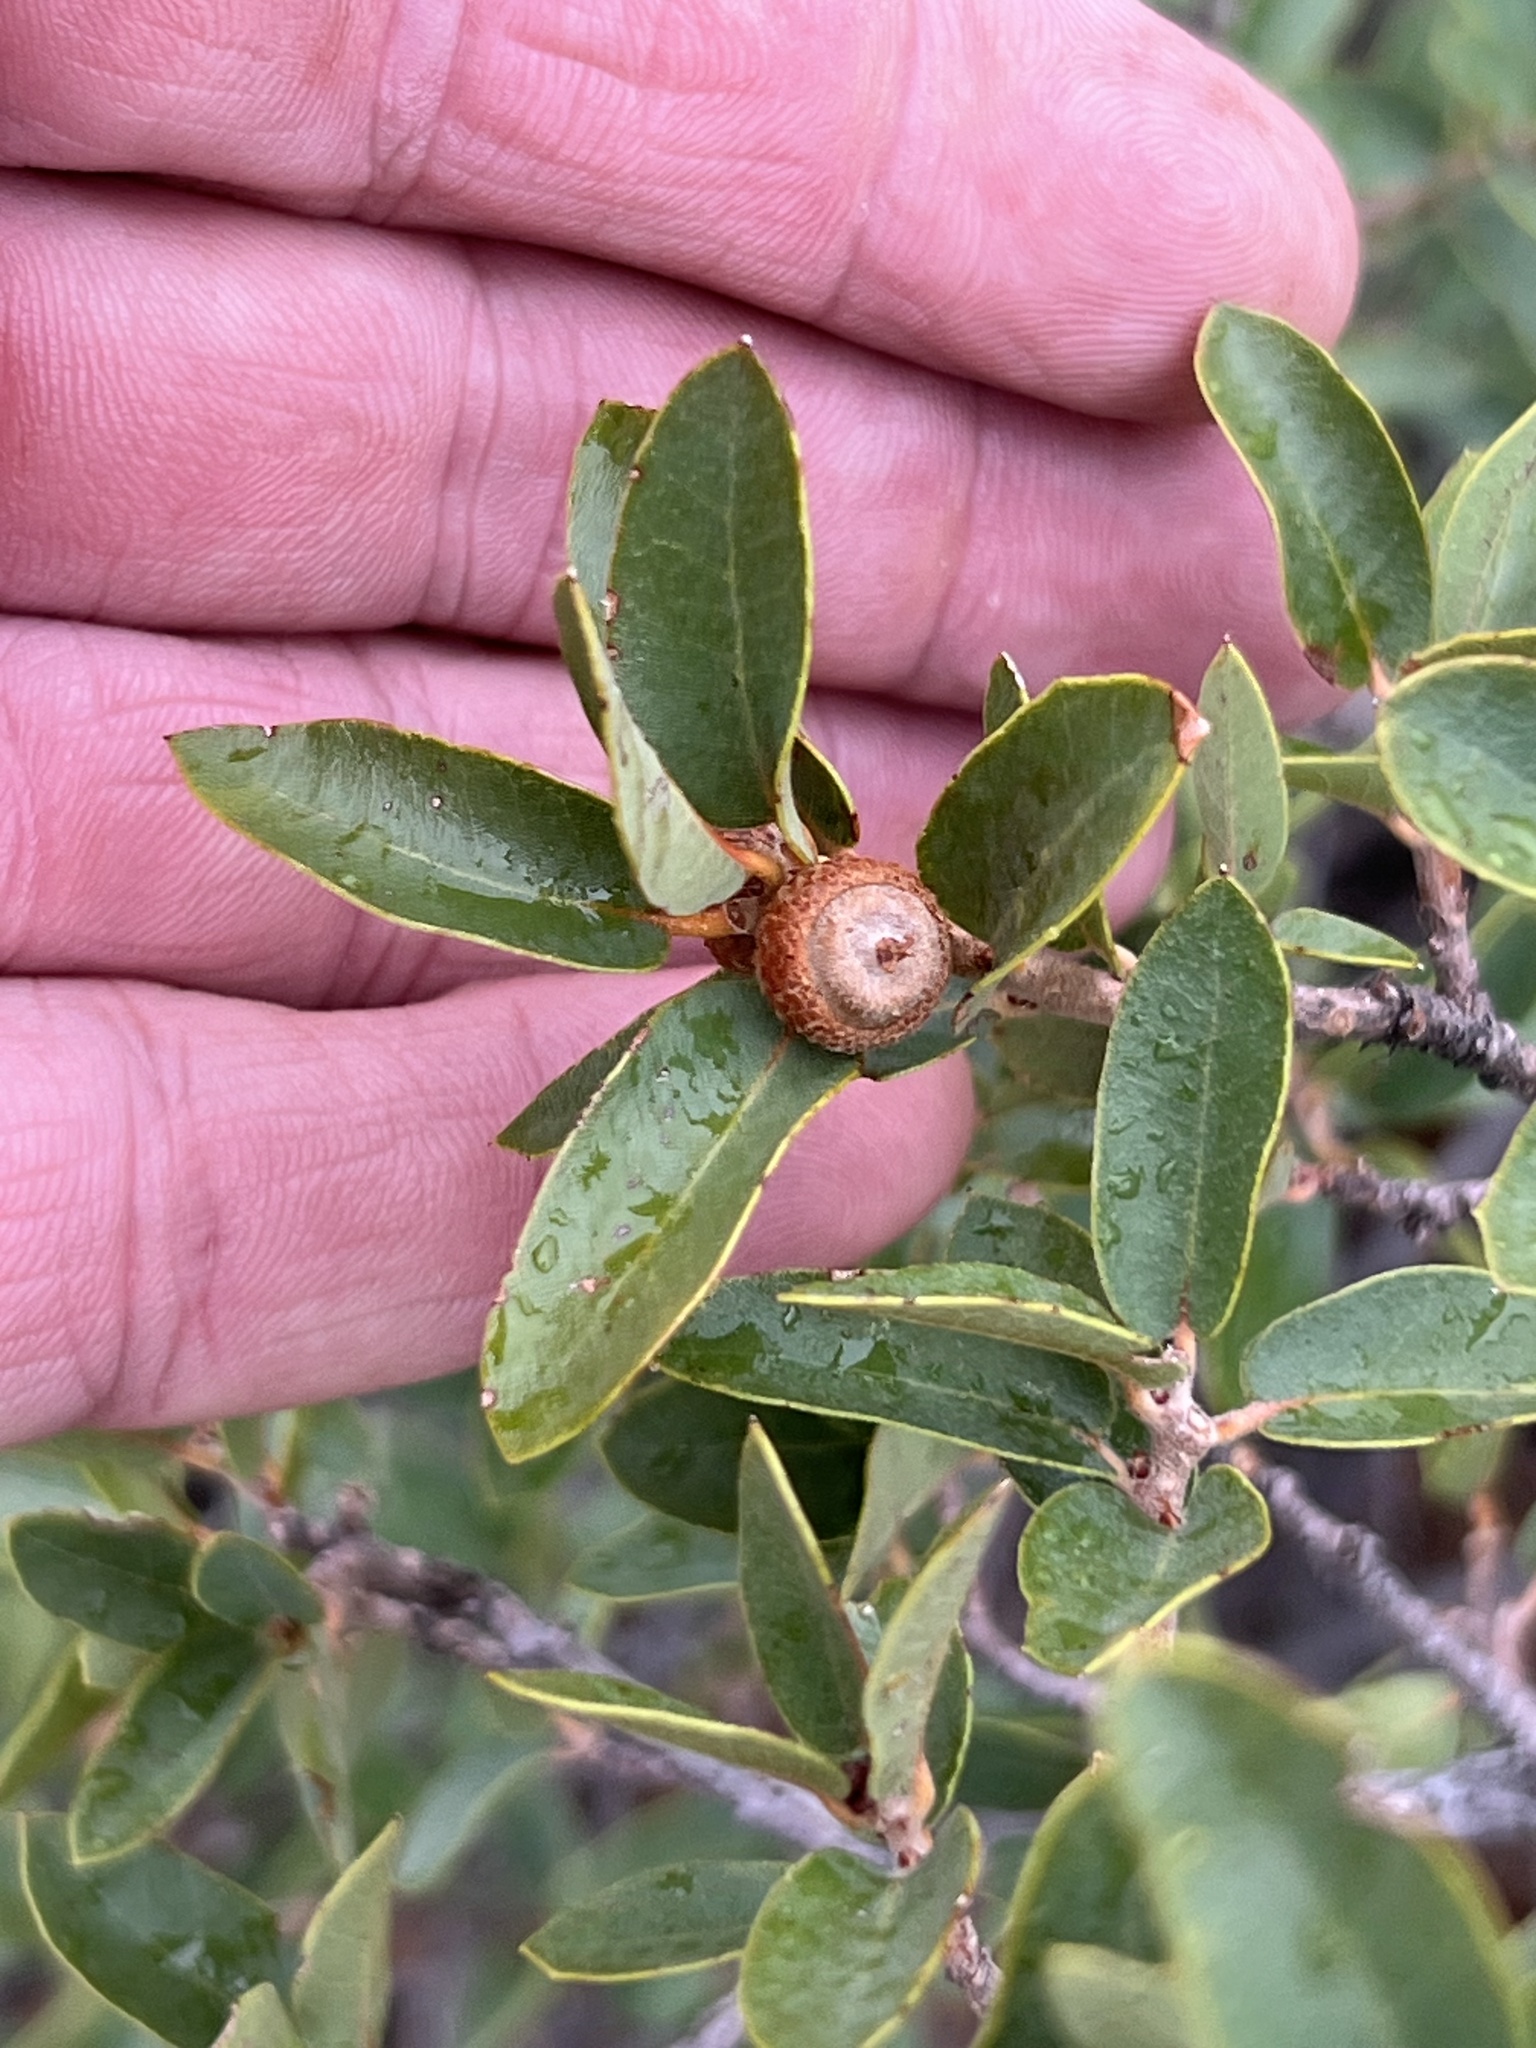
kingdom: Plantae
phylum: Tracheophyta
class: Magnoliopsida
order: Fagales
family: Fagaceae
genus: Quercus
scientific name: Quercus toumeyi
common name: Toumey oak
